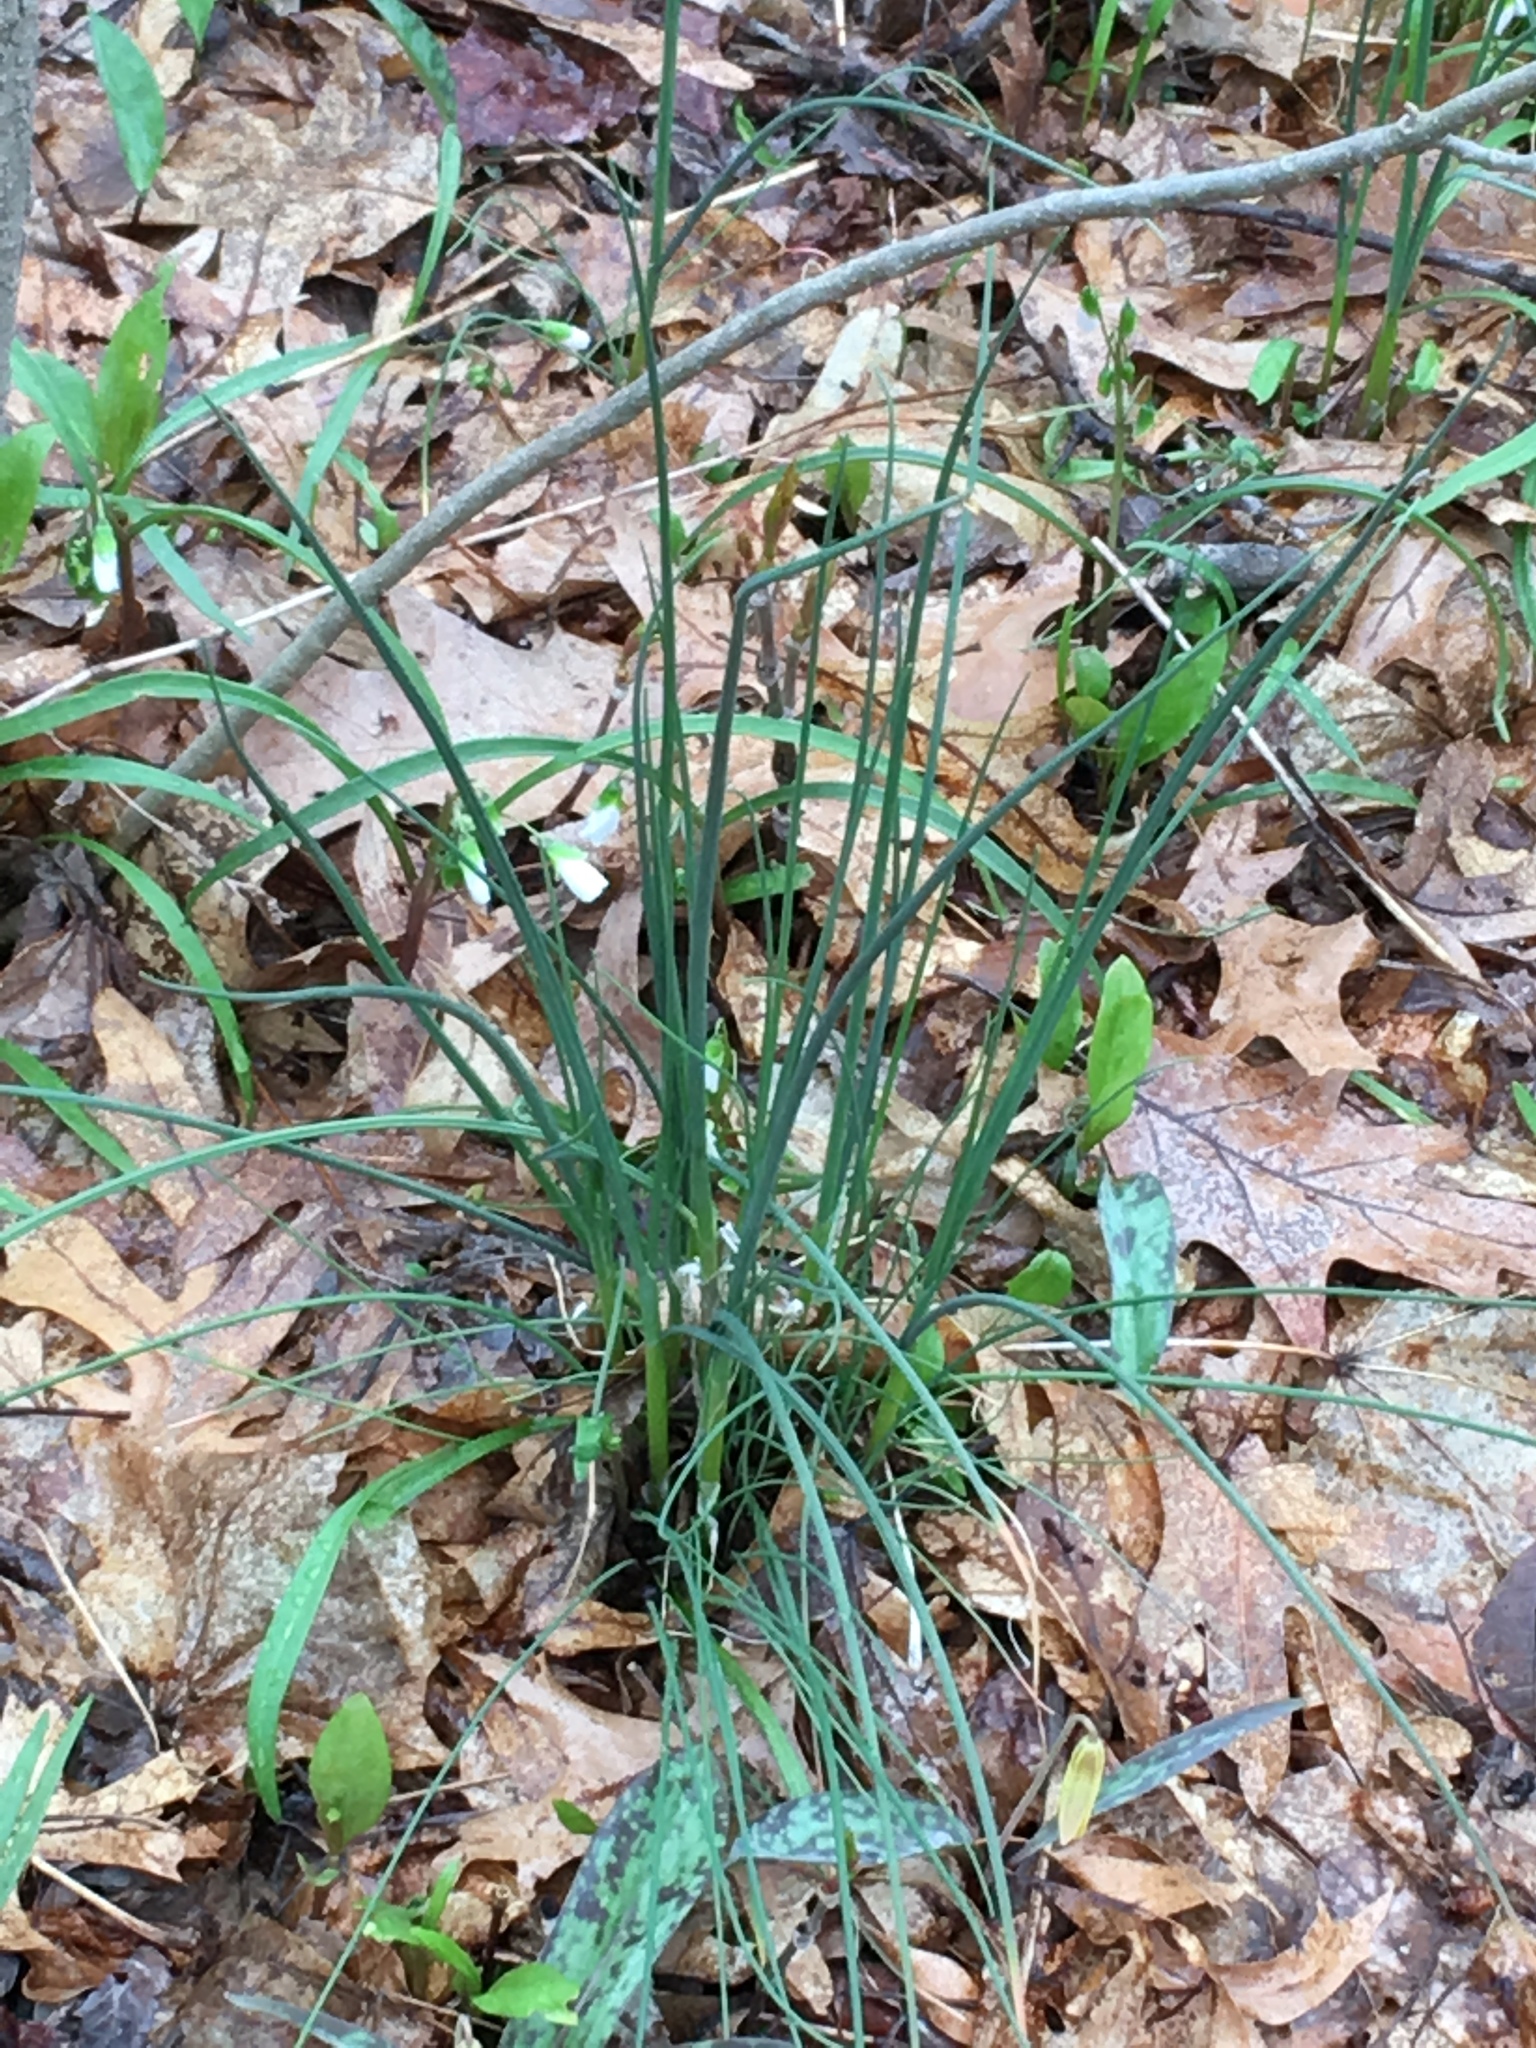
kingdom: Plantae
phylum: Tracheophyta
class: Liliopsida
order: Asparagales
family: Amaryllidaceae
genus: Allium
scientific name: Allium vineale
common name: Crow garlic
